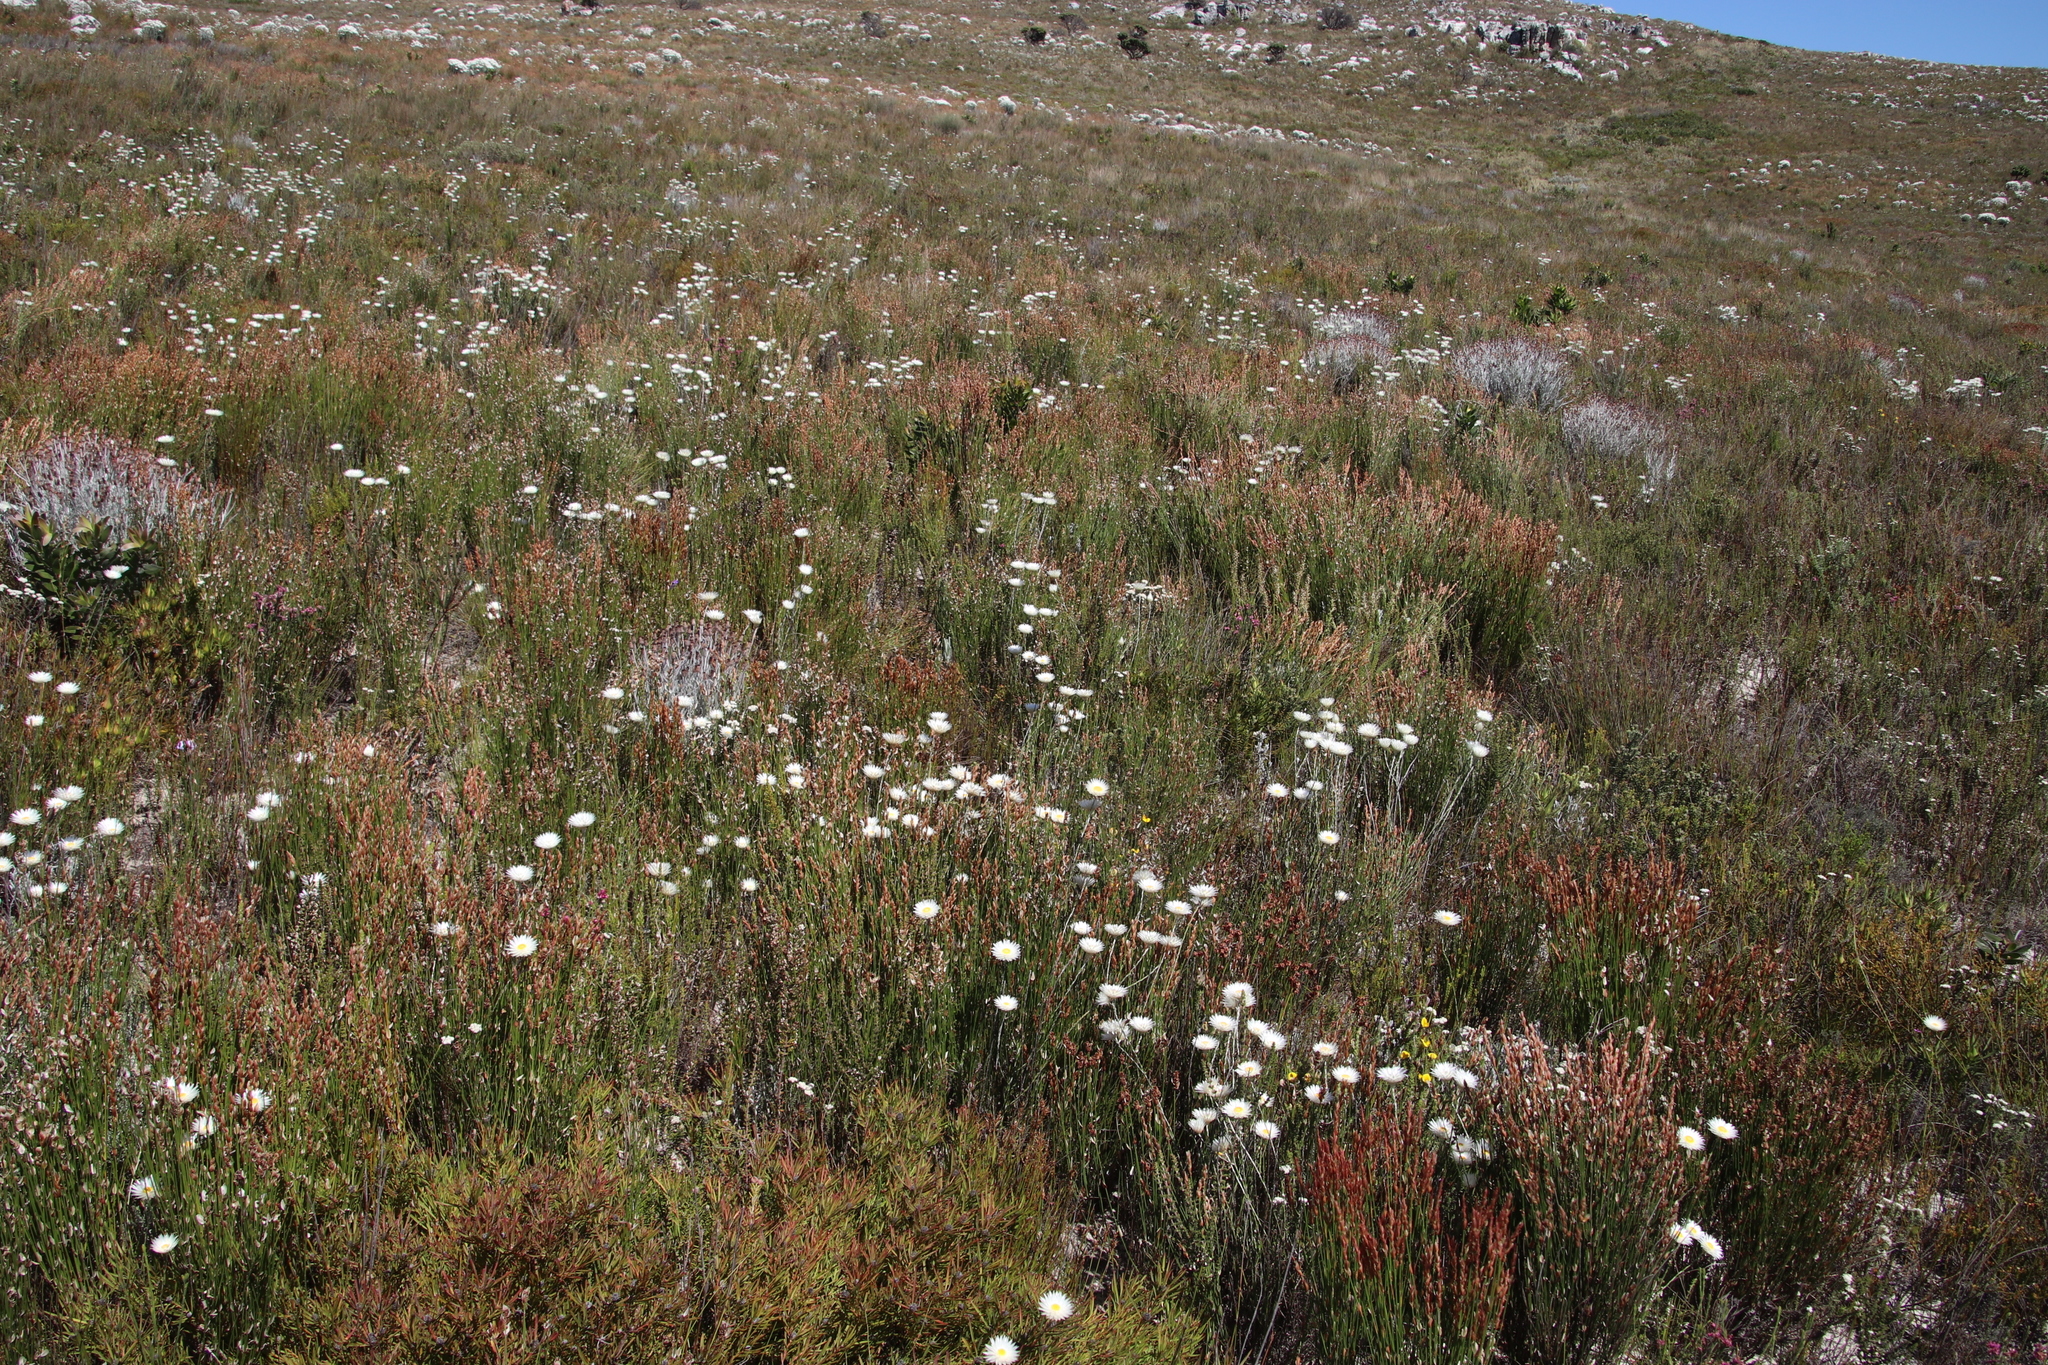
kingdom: Plantae
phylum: Tracheophyta
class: Magnoliopsida
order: Asterales
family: Asteraceae
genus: Edmondia
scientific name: Edmondia sesamoides
